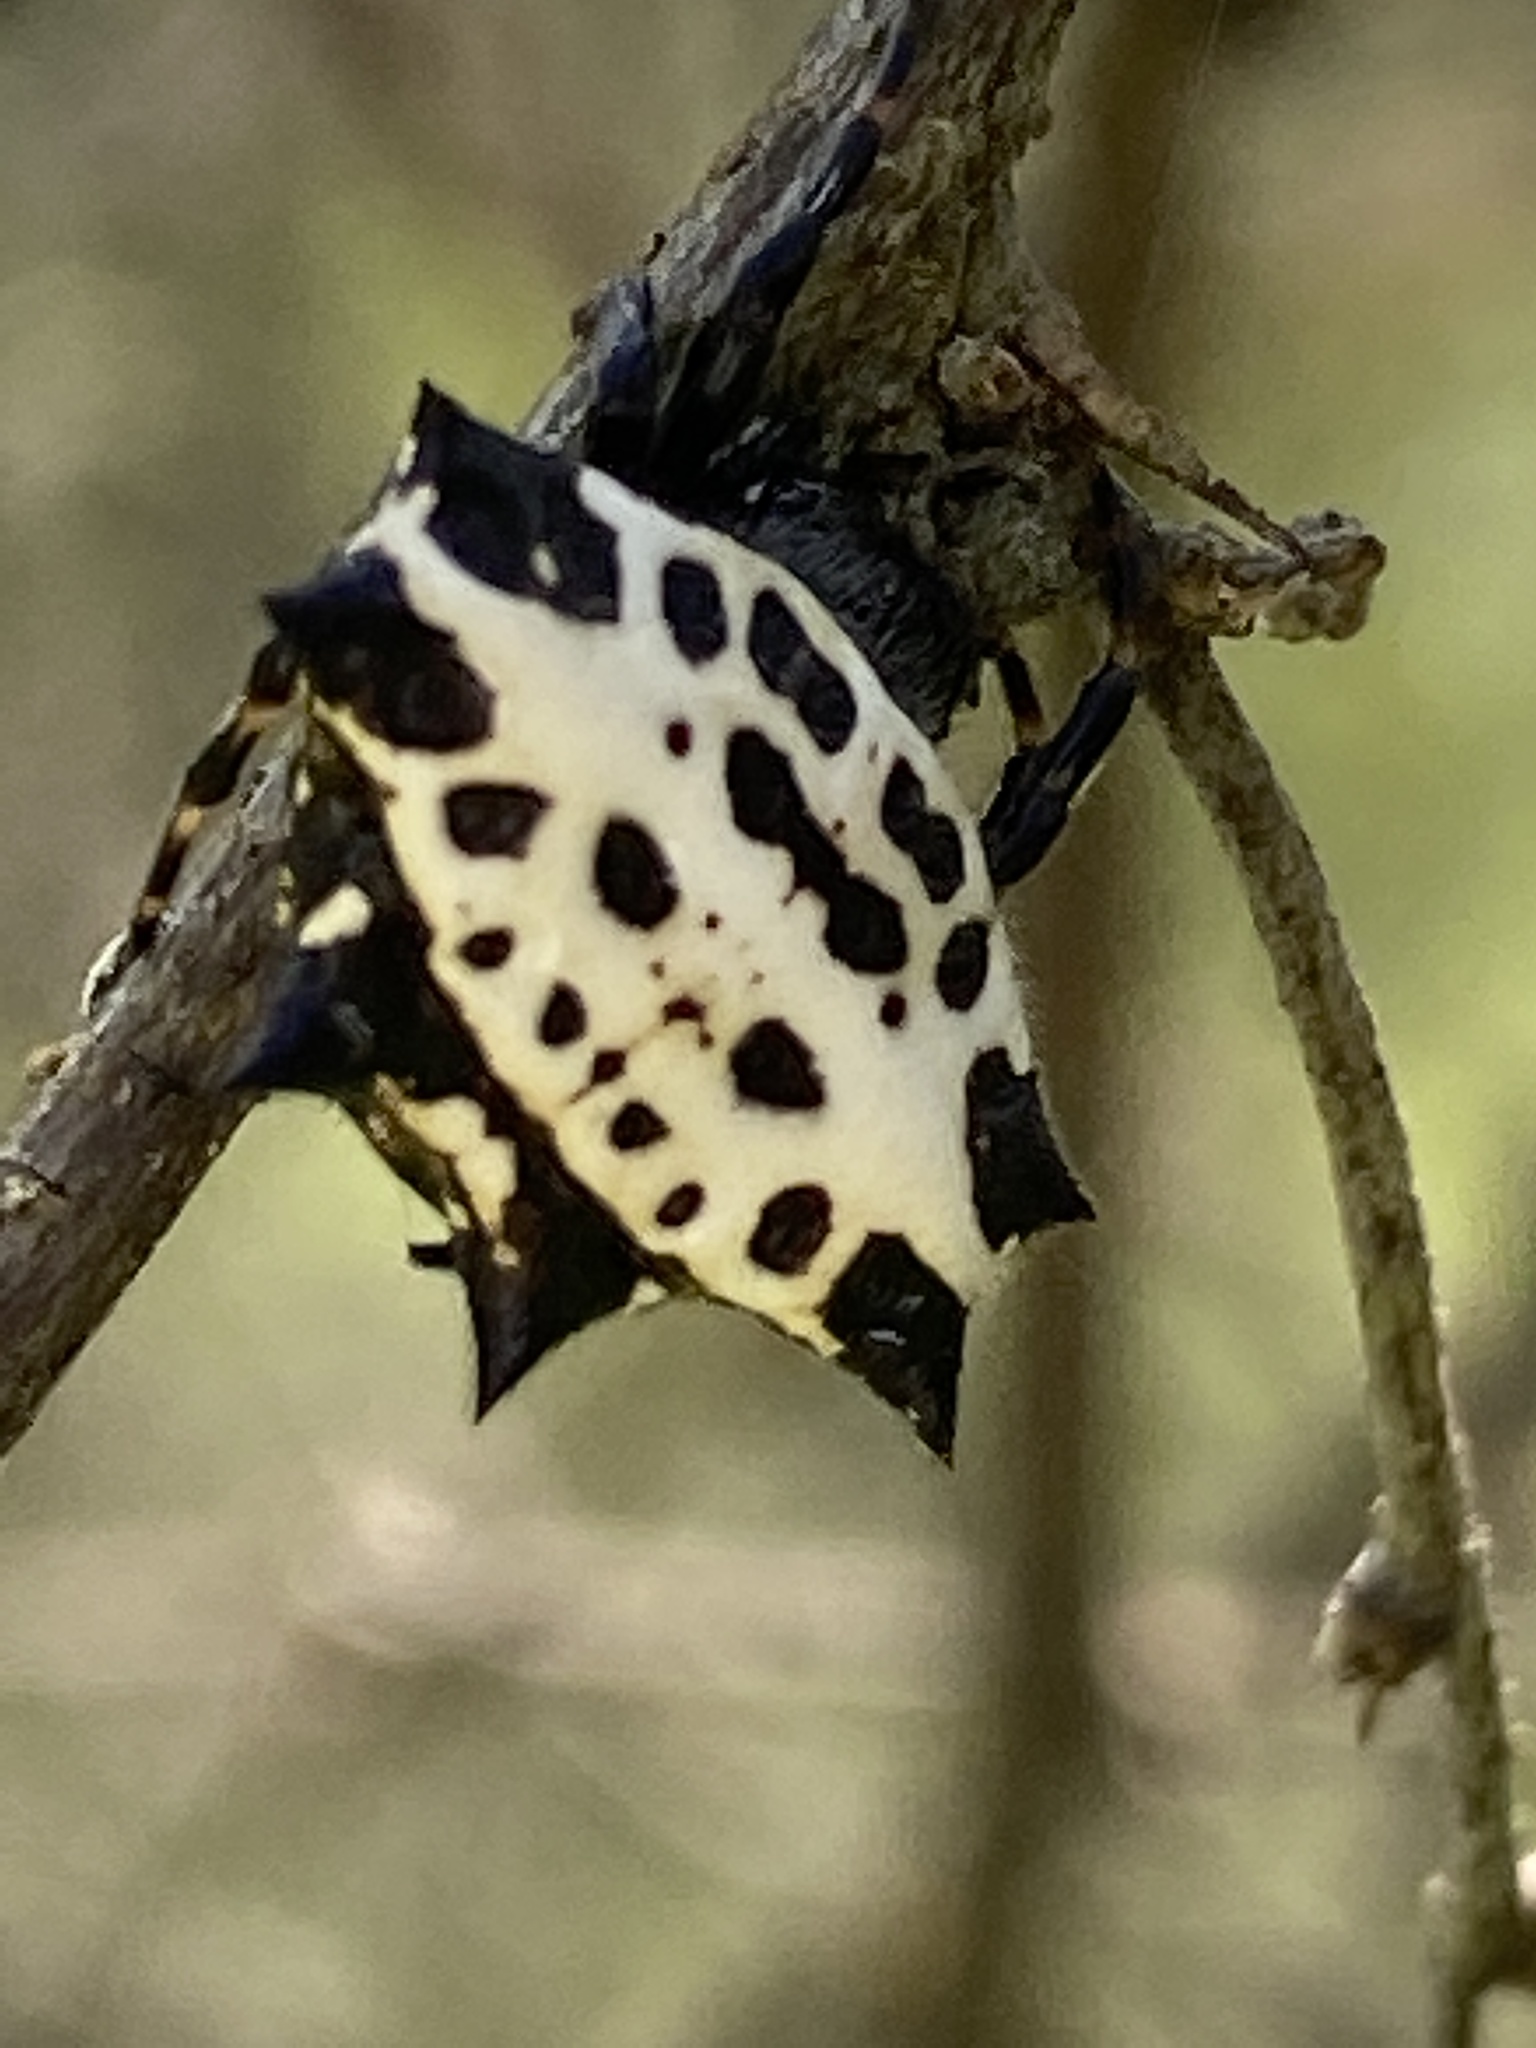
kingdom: Animalia
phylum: Arthropoda
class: Arachnida
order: Araneae
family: Araneidae
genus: Gasteracantha
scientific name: Gasteracantha cancriformis
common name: Orb weavers
